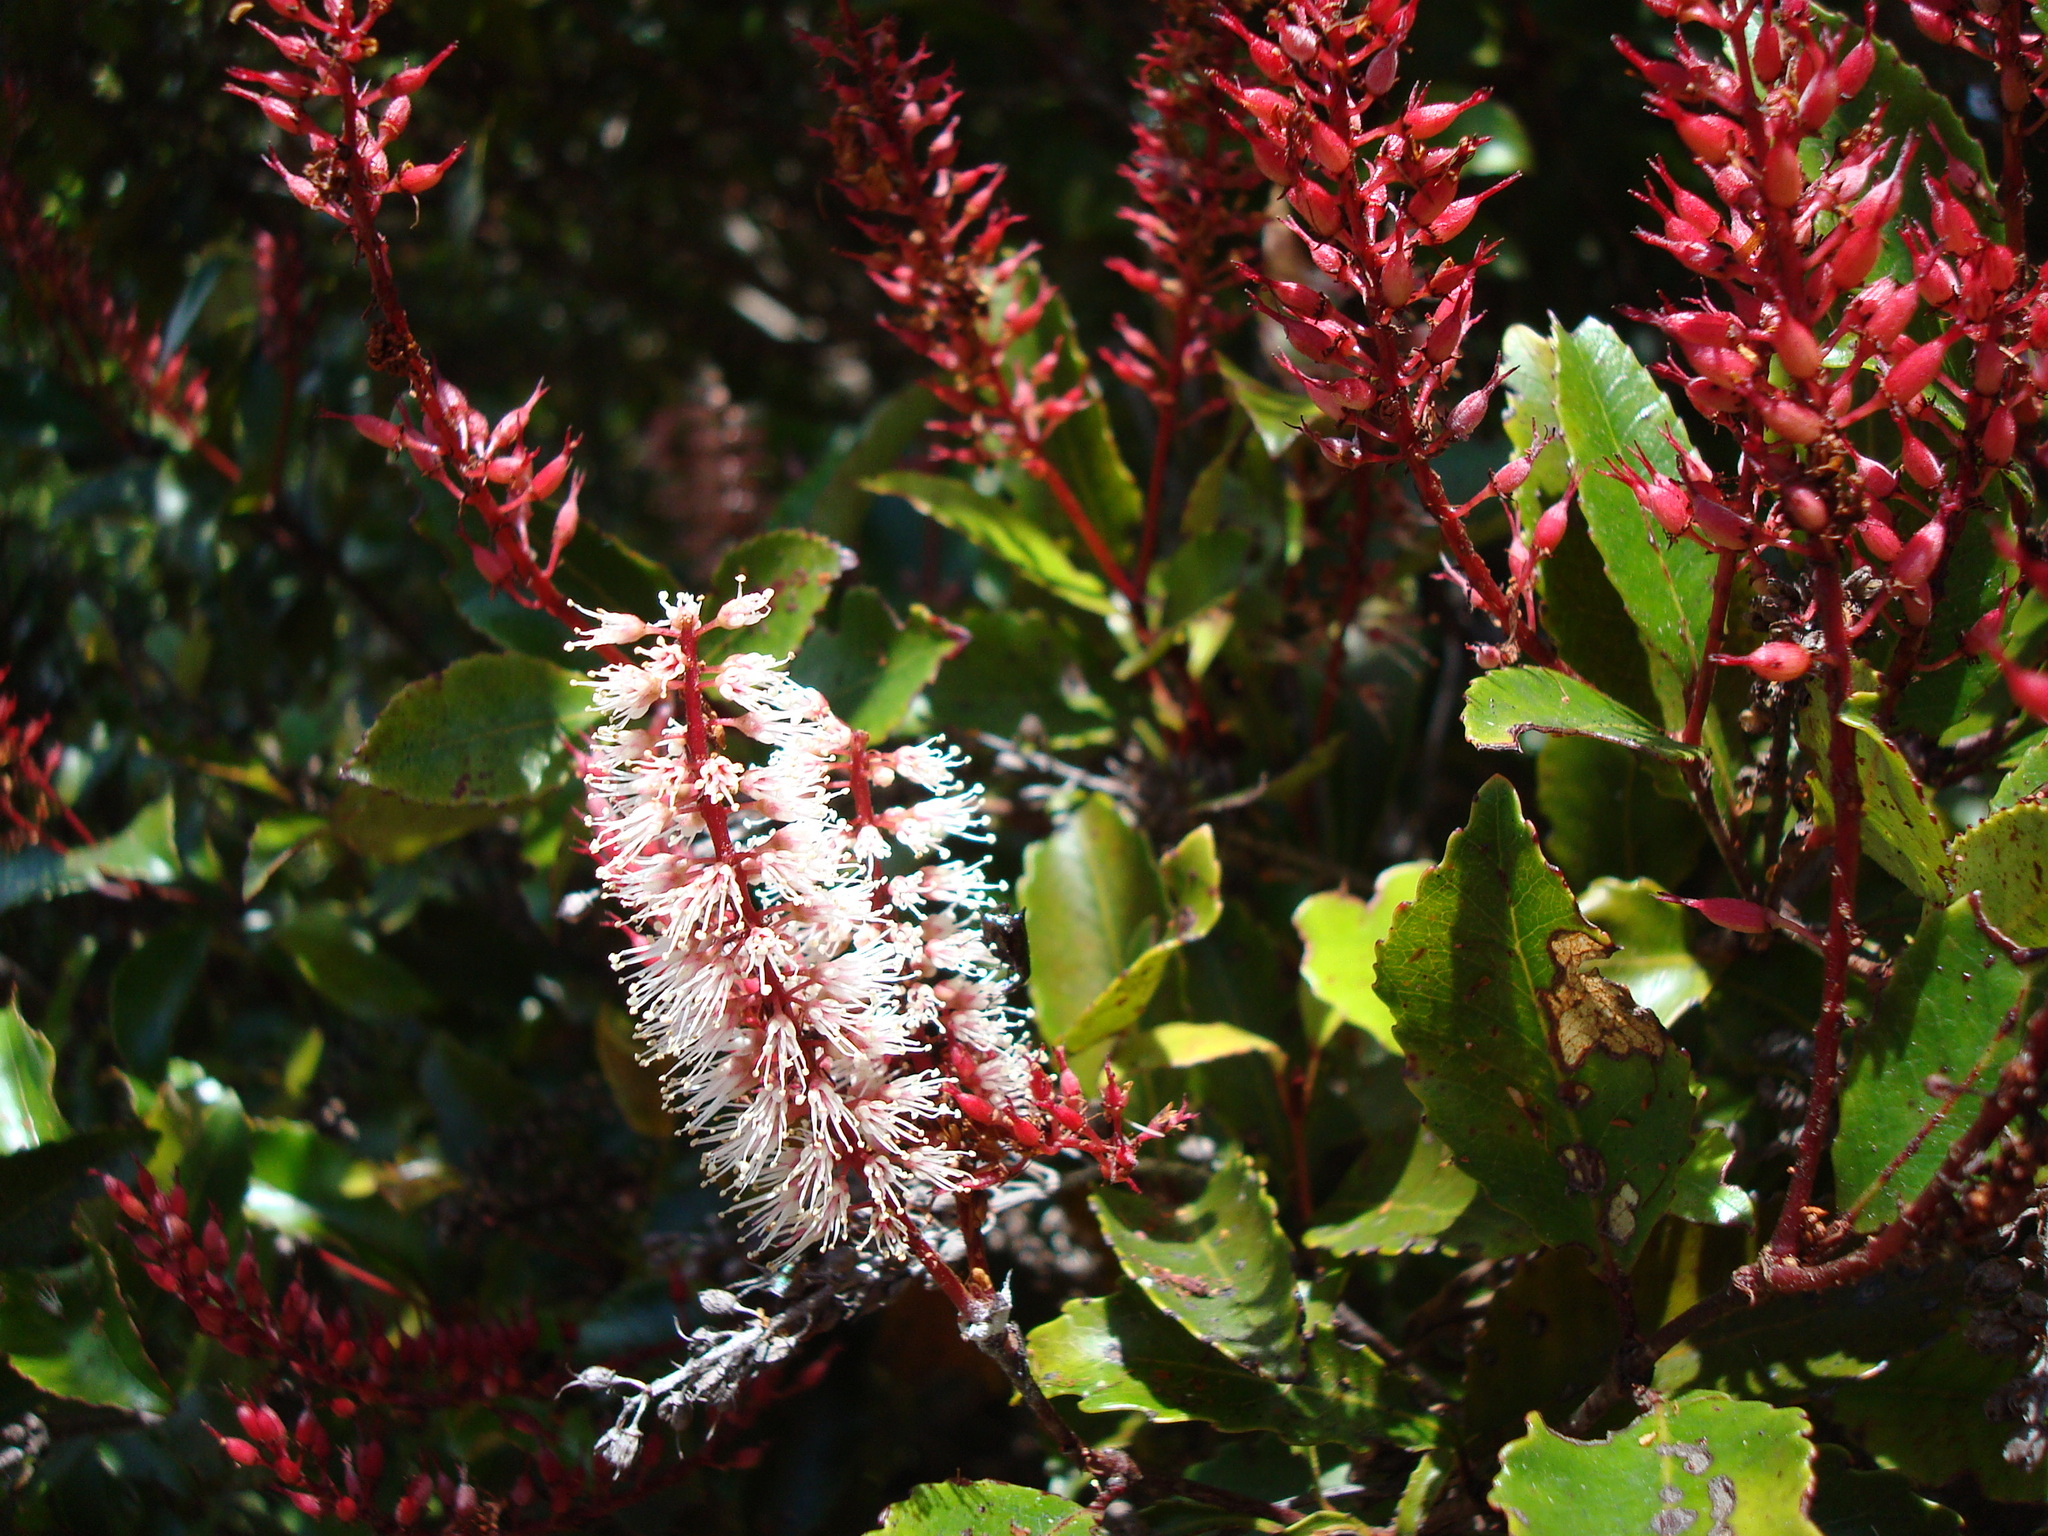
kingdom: Plantae
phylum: Tracheophyta
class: Magnoliopsida
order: Oxalidales
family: Cunoniaceae
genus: Pterophylla
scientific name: Pterophylla racemosa
